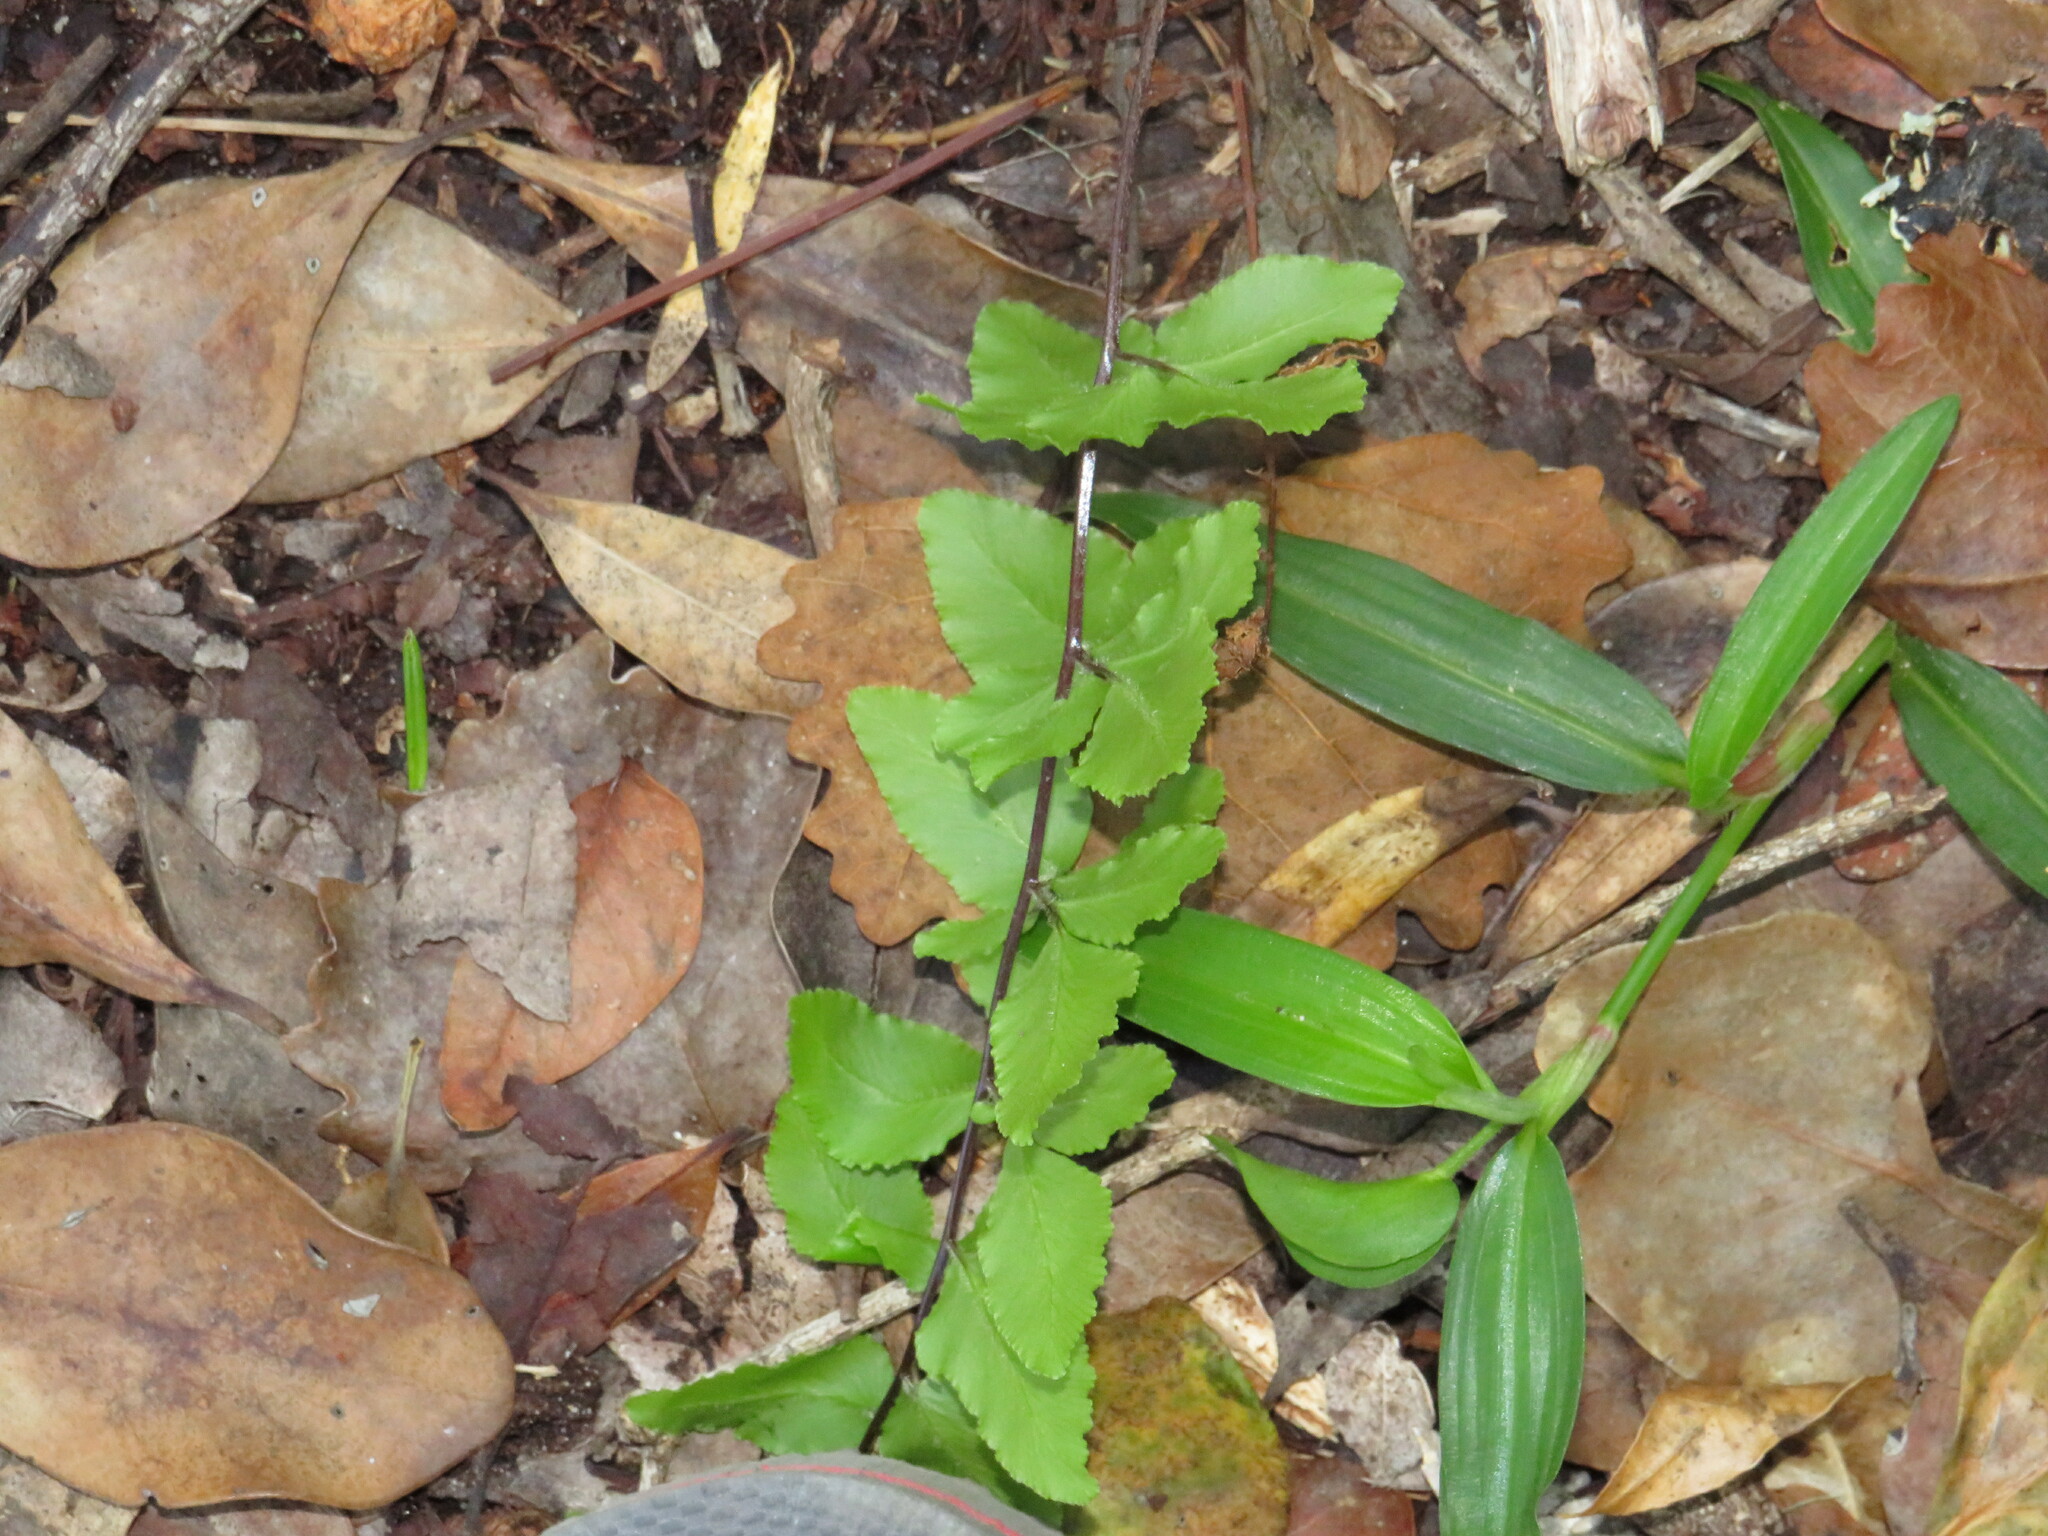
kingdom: Plantae
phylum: Tracheophyta
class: Polypodiopsida
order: Polypodiales
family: Pteridaceae
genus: Cheilanthes
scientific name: Cheilanthes viridis
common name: Green cliffbrake
